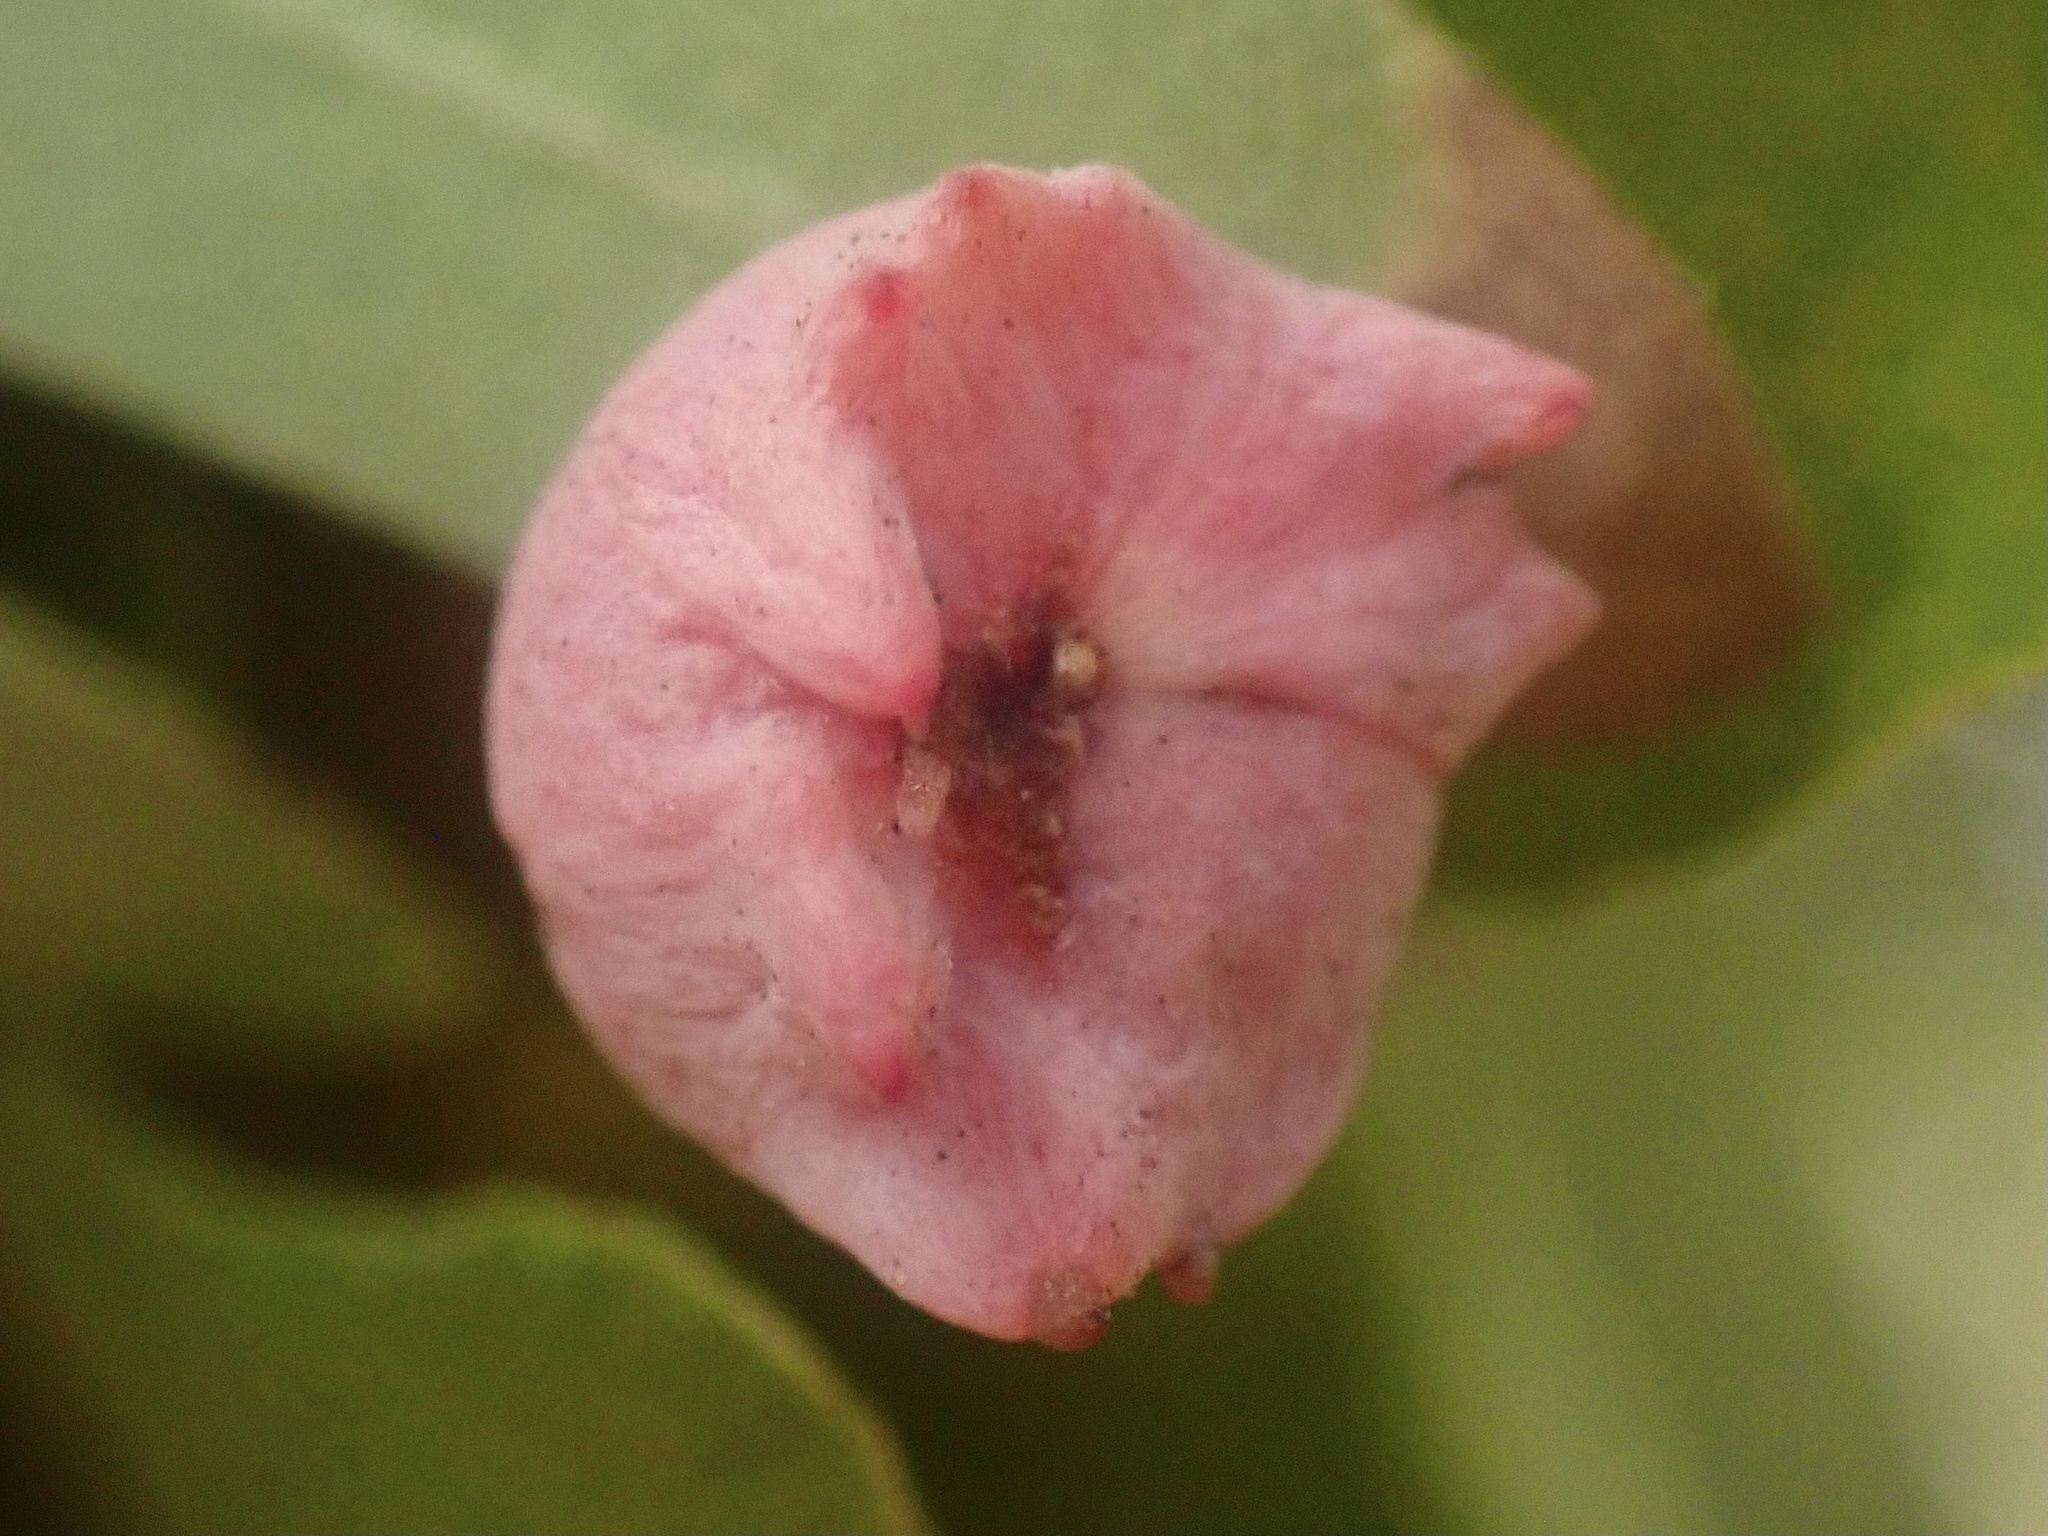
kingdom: Animalia
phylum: Arthropoda
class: Insecta
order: Hymenoptera
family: Cynipidae
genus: Cynips
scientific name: Cynips douglasi
